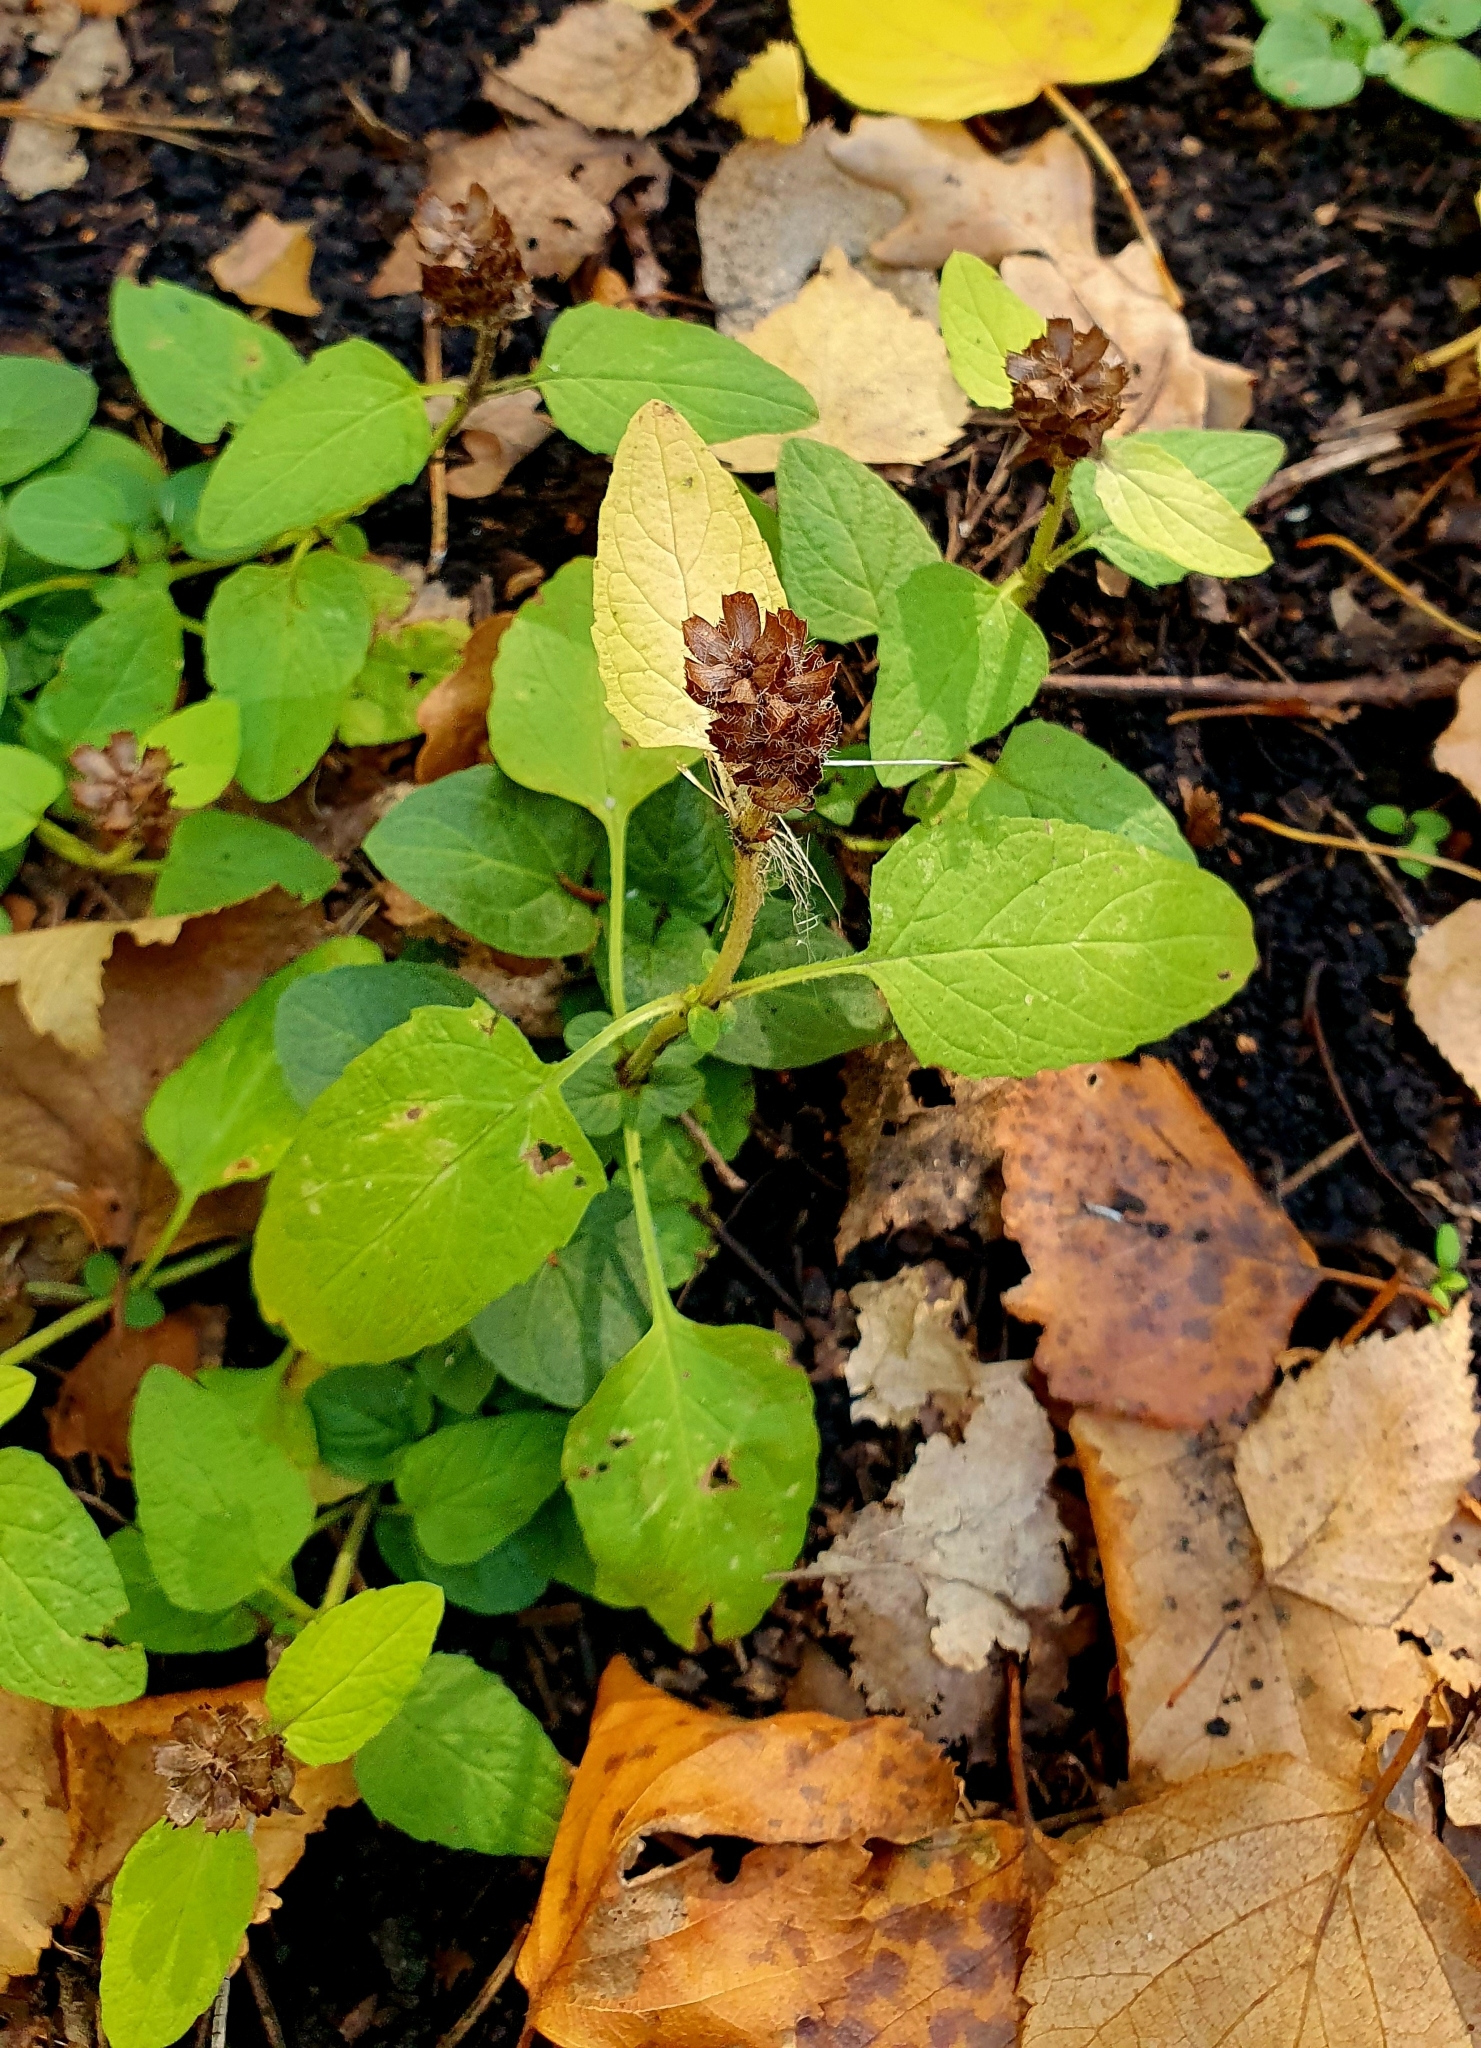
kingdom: Plantae
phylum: Tracheophyta
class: Magnoliopsida
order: Lamiales
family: Lamiaceae
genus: Prunella
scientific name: Prunella vulgaris
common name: Heal-all
